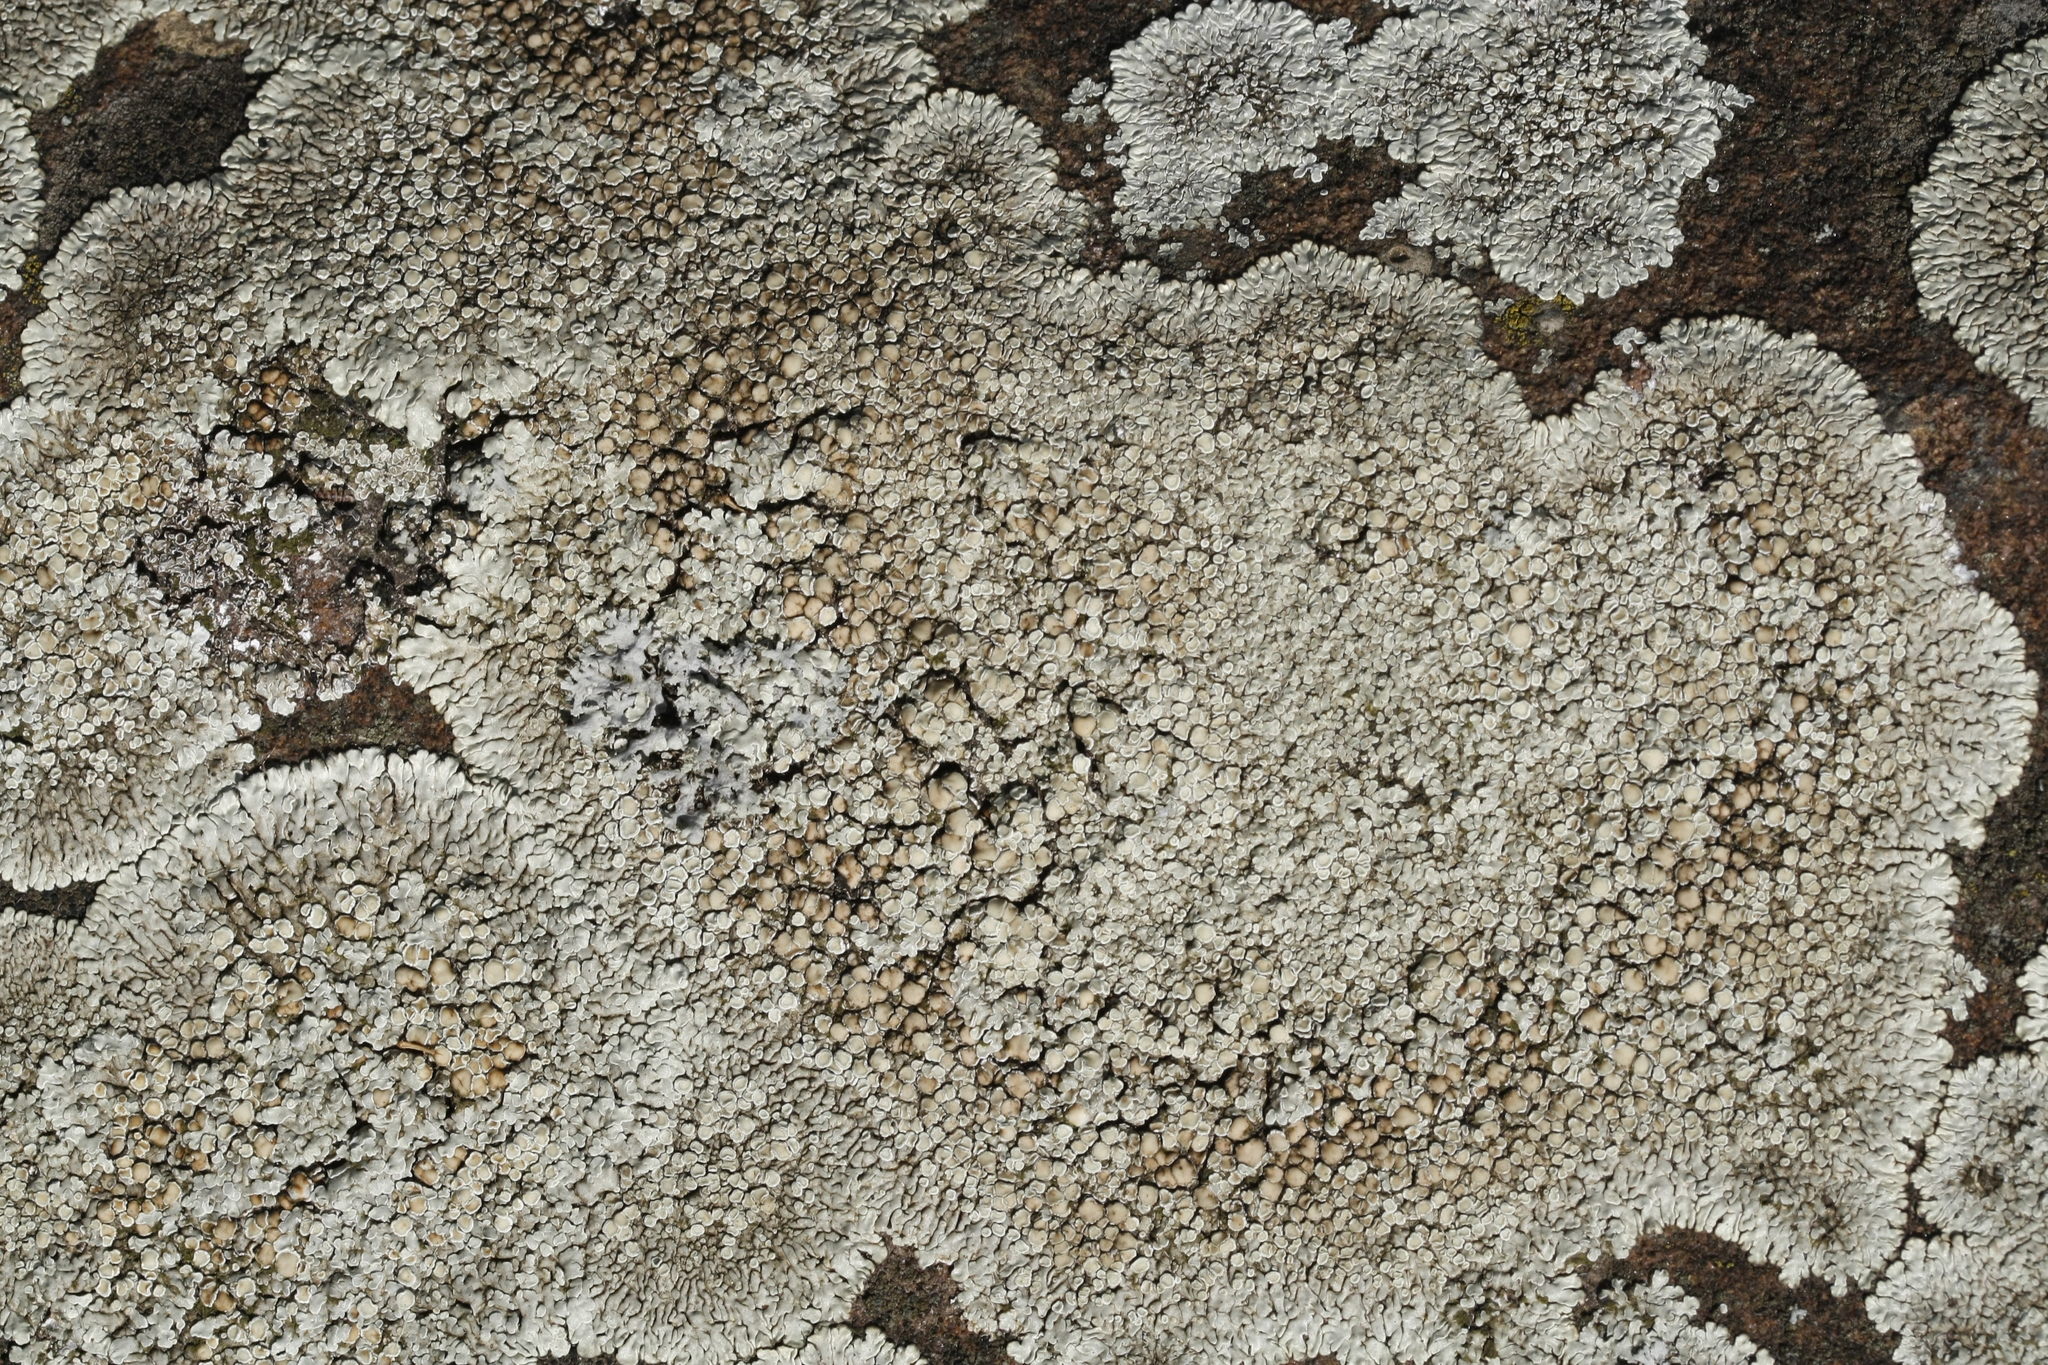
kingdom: Fungi
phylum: Ascomycota
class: Lecanoromycetes
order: Lecanorales
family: Lecanoraceae
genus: Protoparmeliopsis
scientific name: Protoparmeliopsis muralis
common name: Stonewall rim lichen
